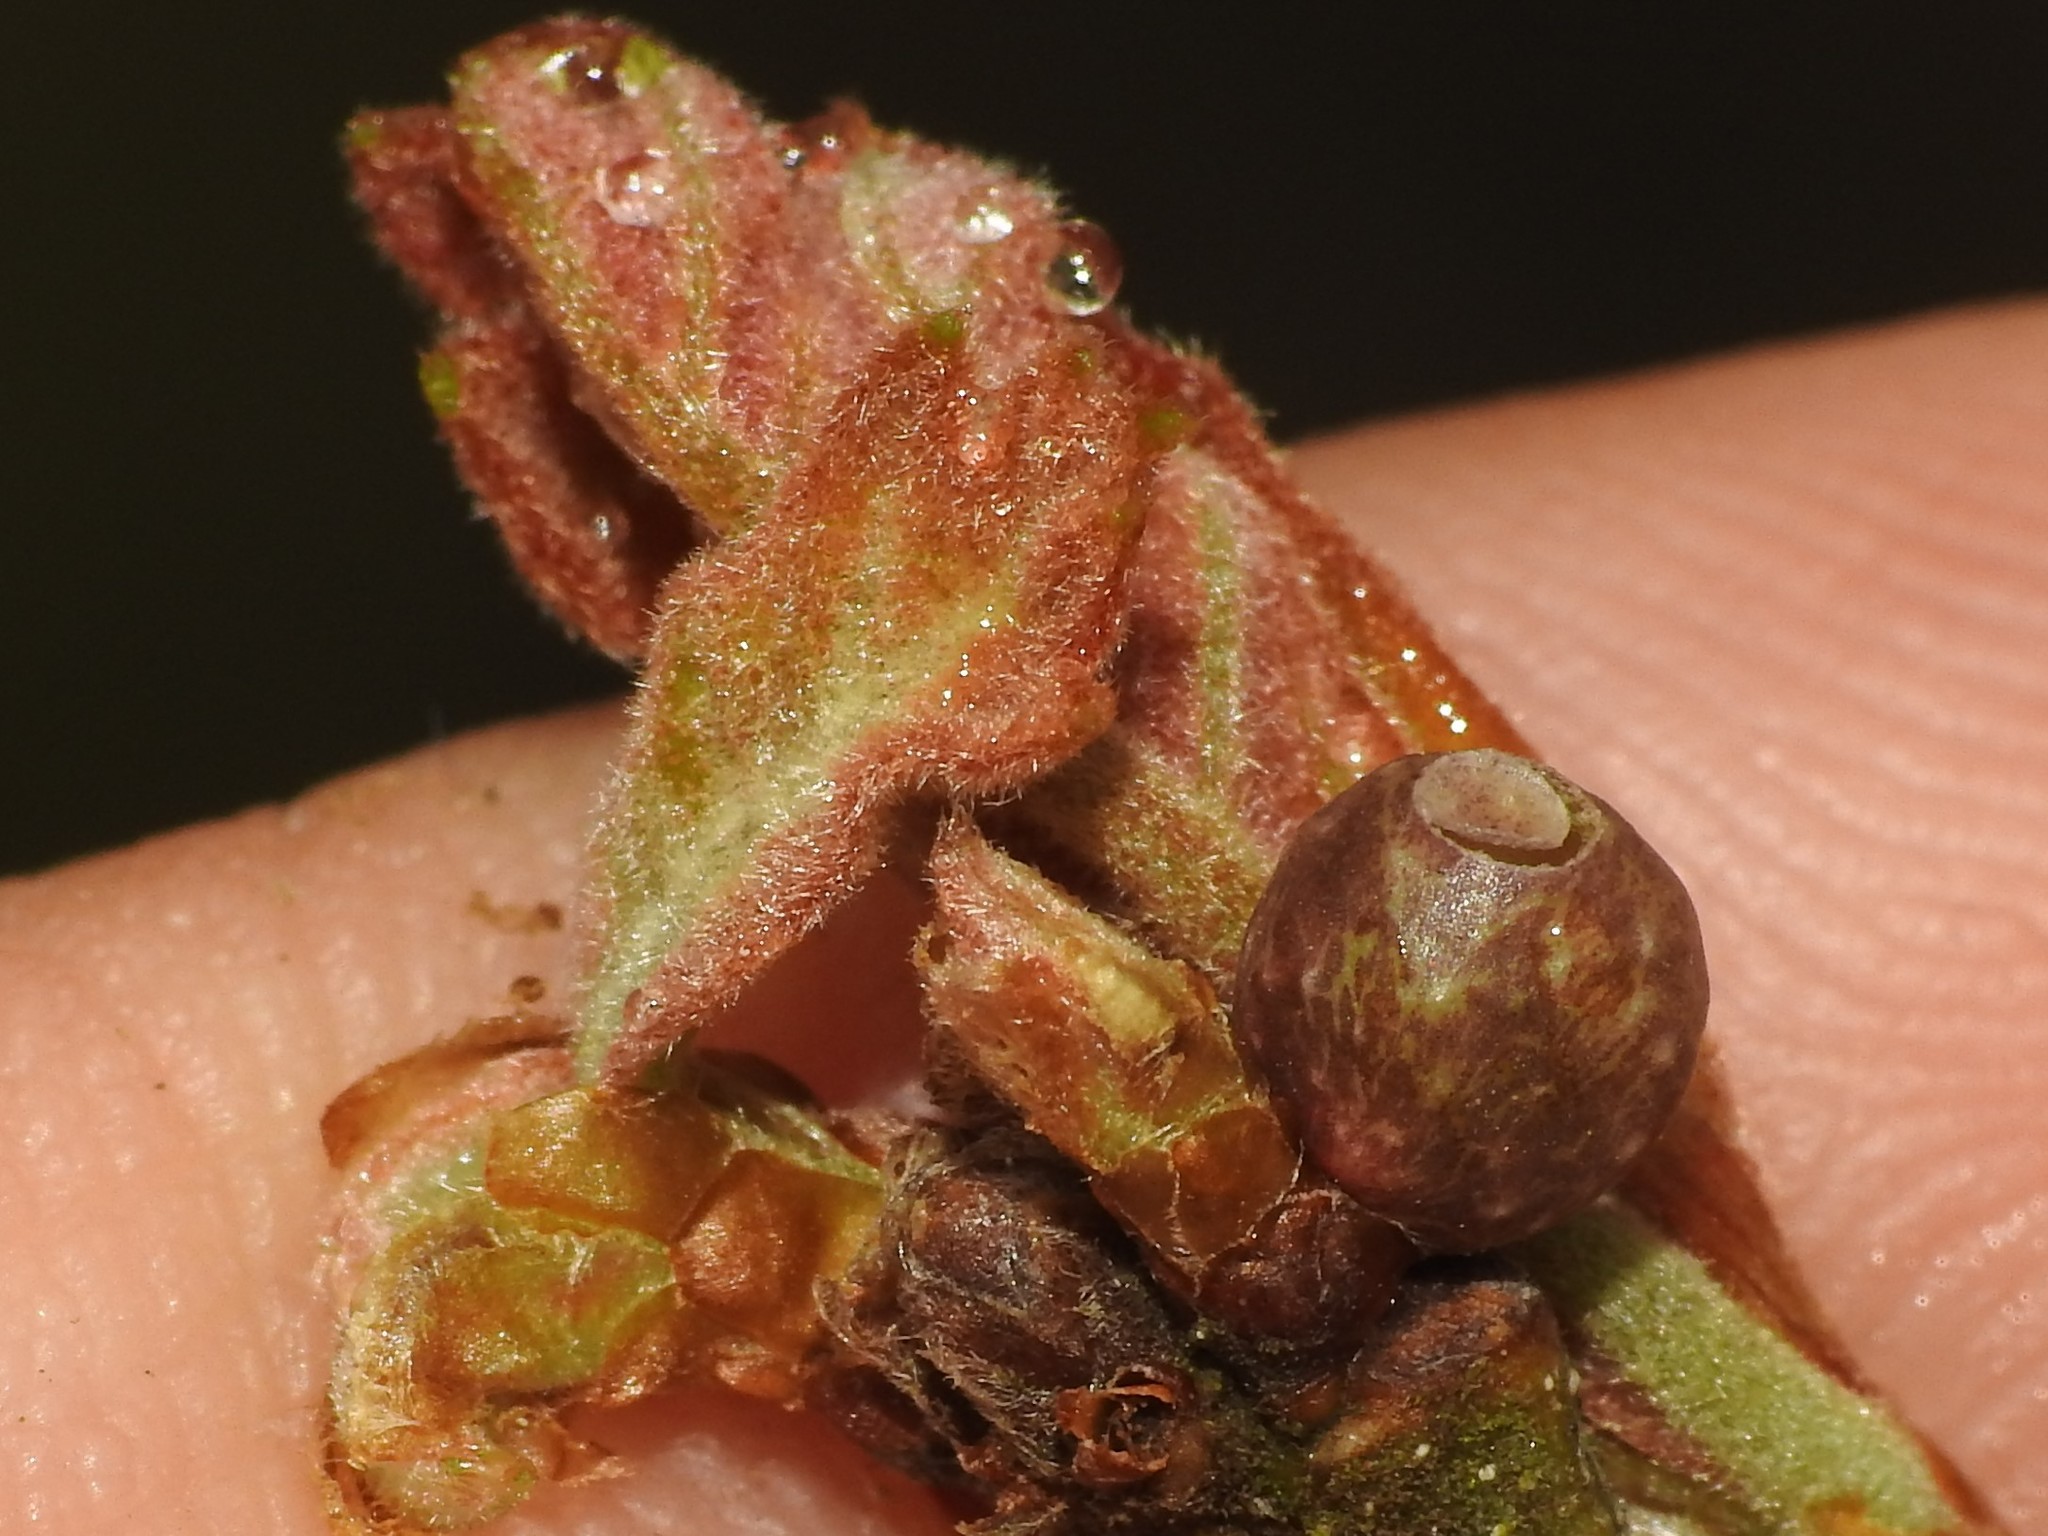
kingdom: Animalia
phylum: Arthropoda
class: Insecta
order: Hymenoptera
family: Cynipidae
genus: Neuroterus
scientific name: Neuroterus
